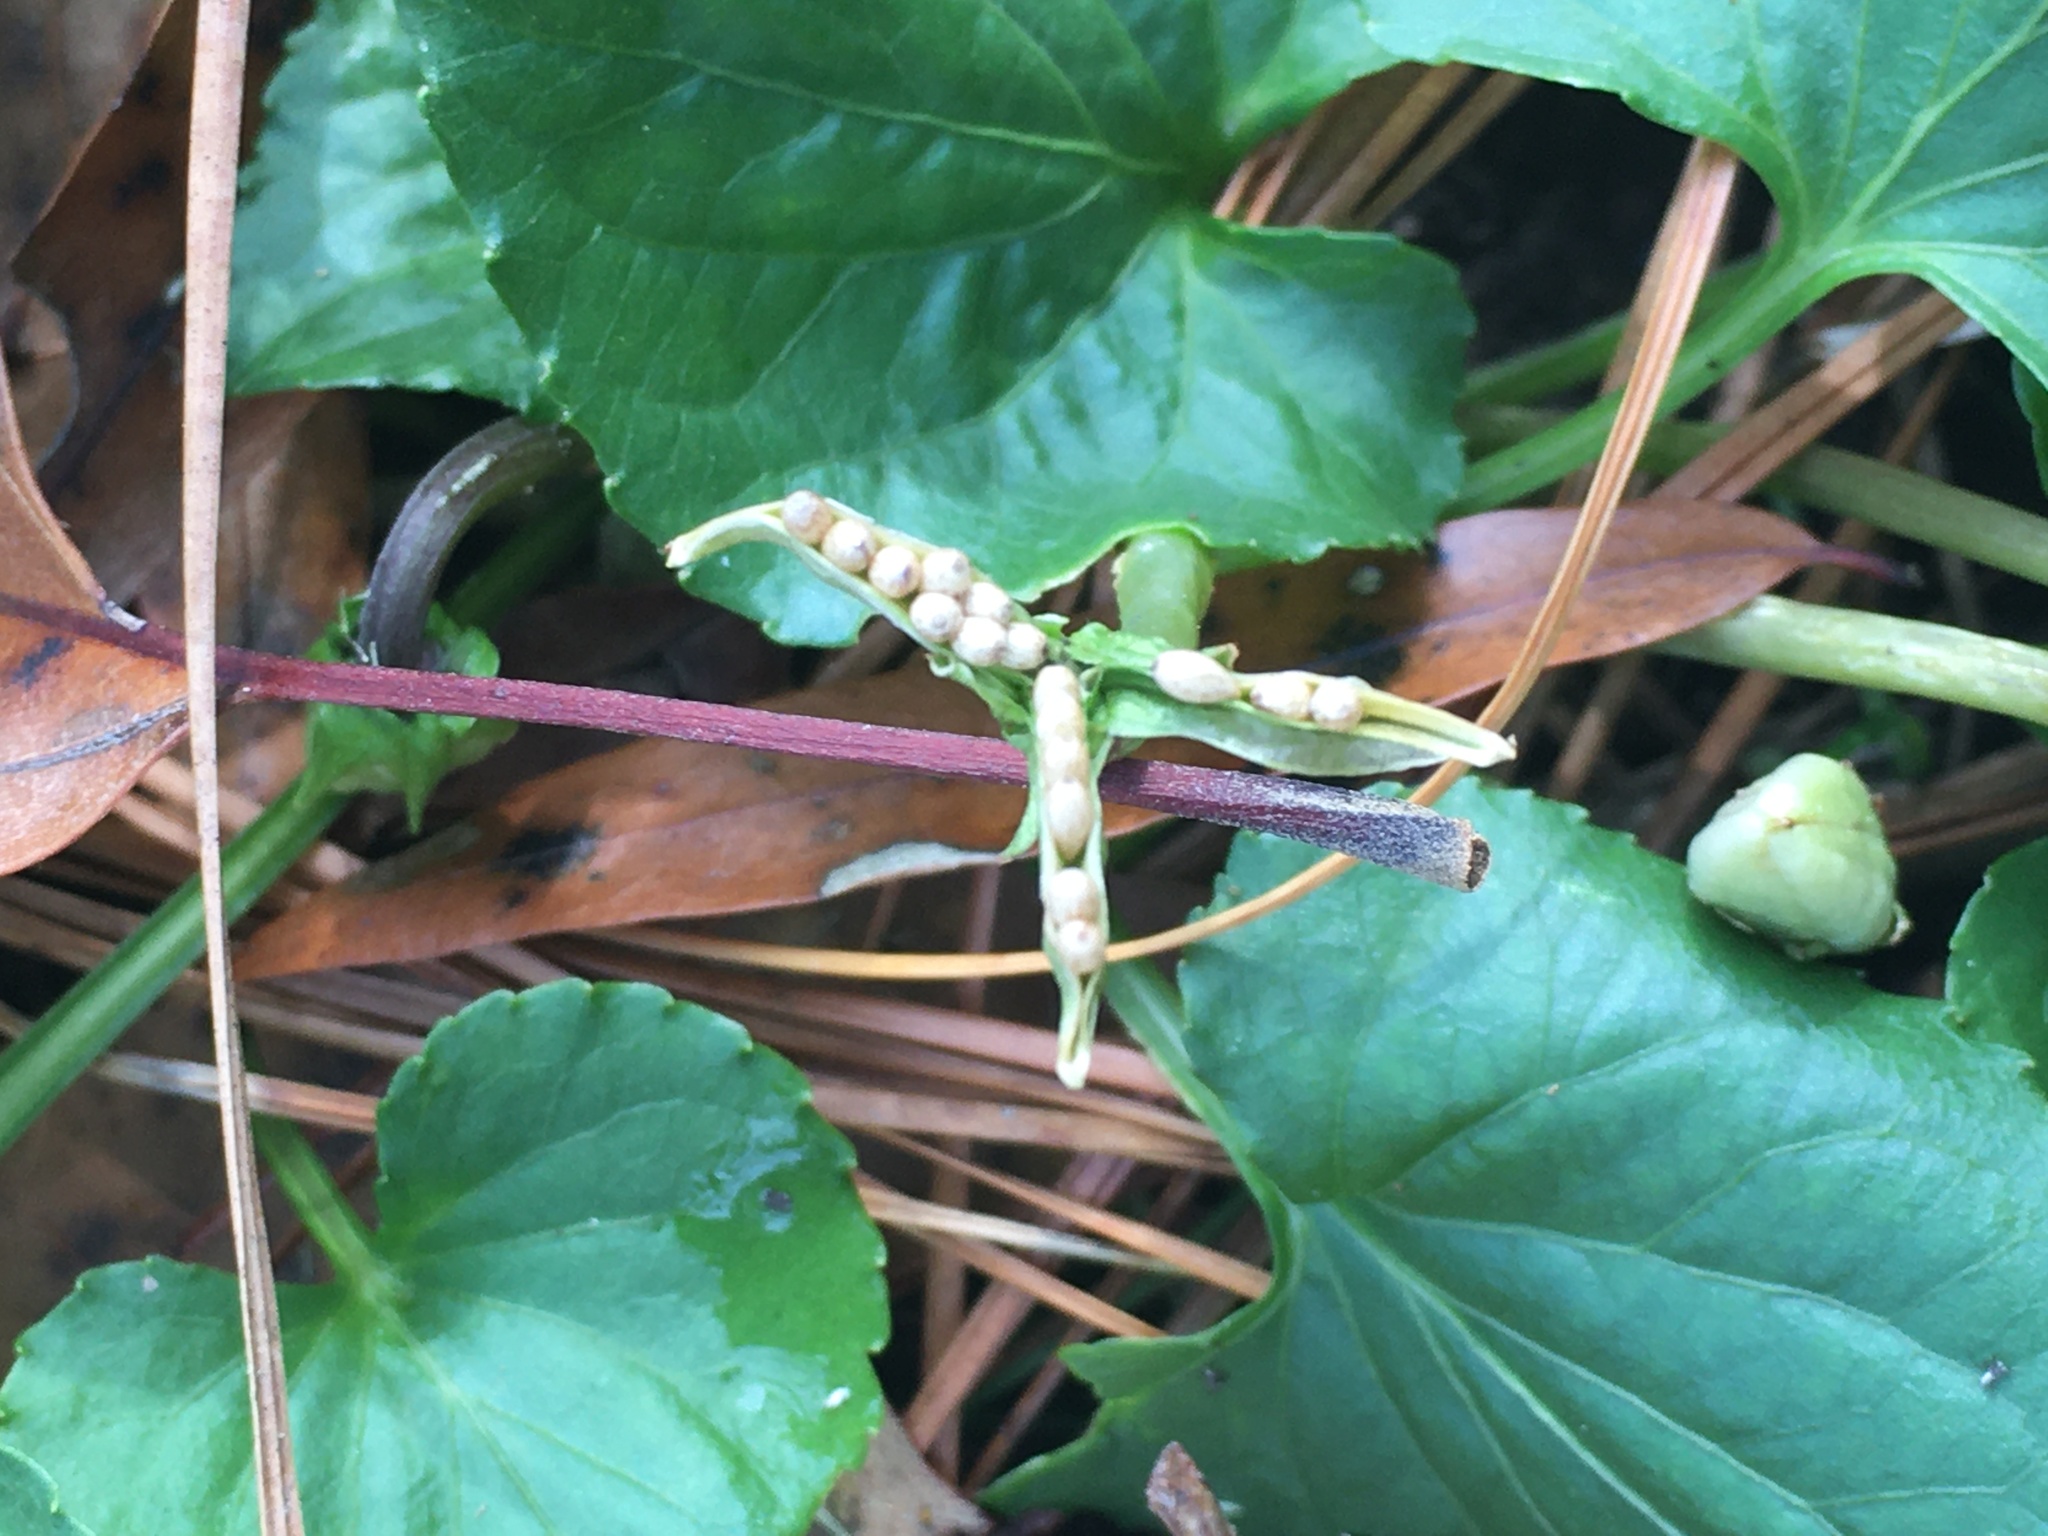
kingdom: Plantae
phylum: Tracheophyta
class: Magnoliopsida
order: Malpighiales
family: Violaceae
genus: Viola
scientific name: Viola sororia
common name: Dooryard violet
